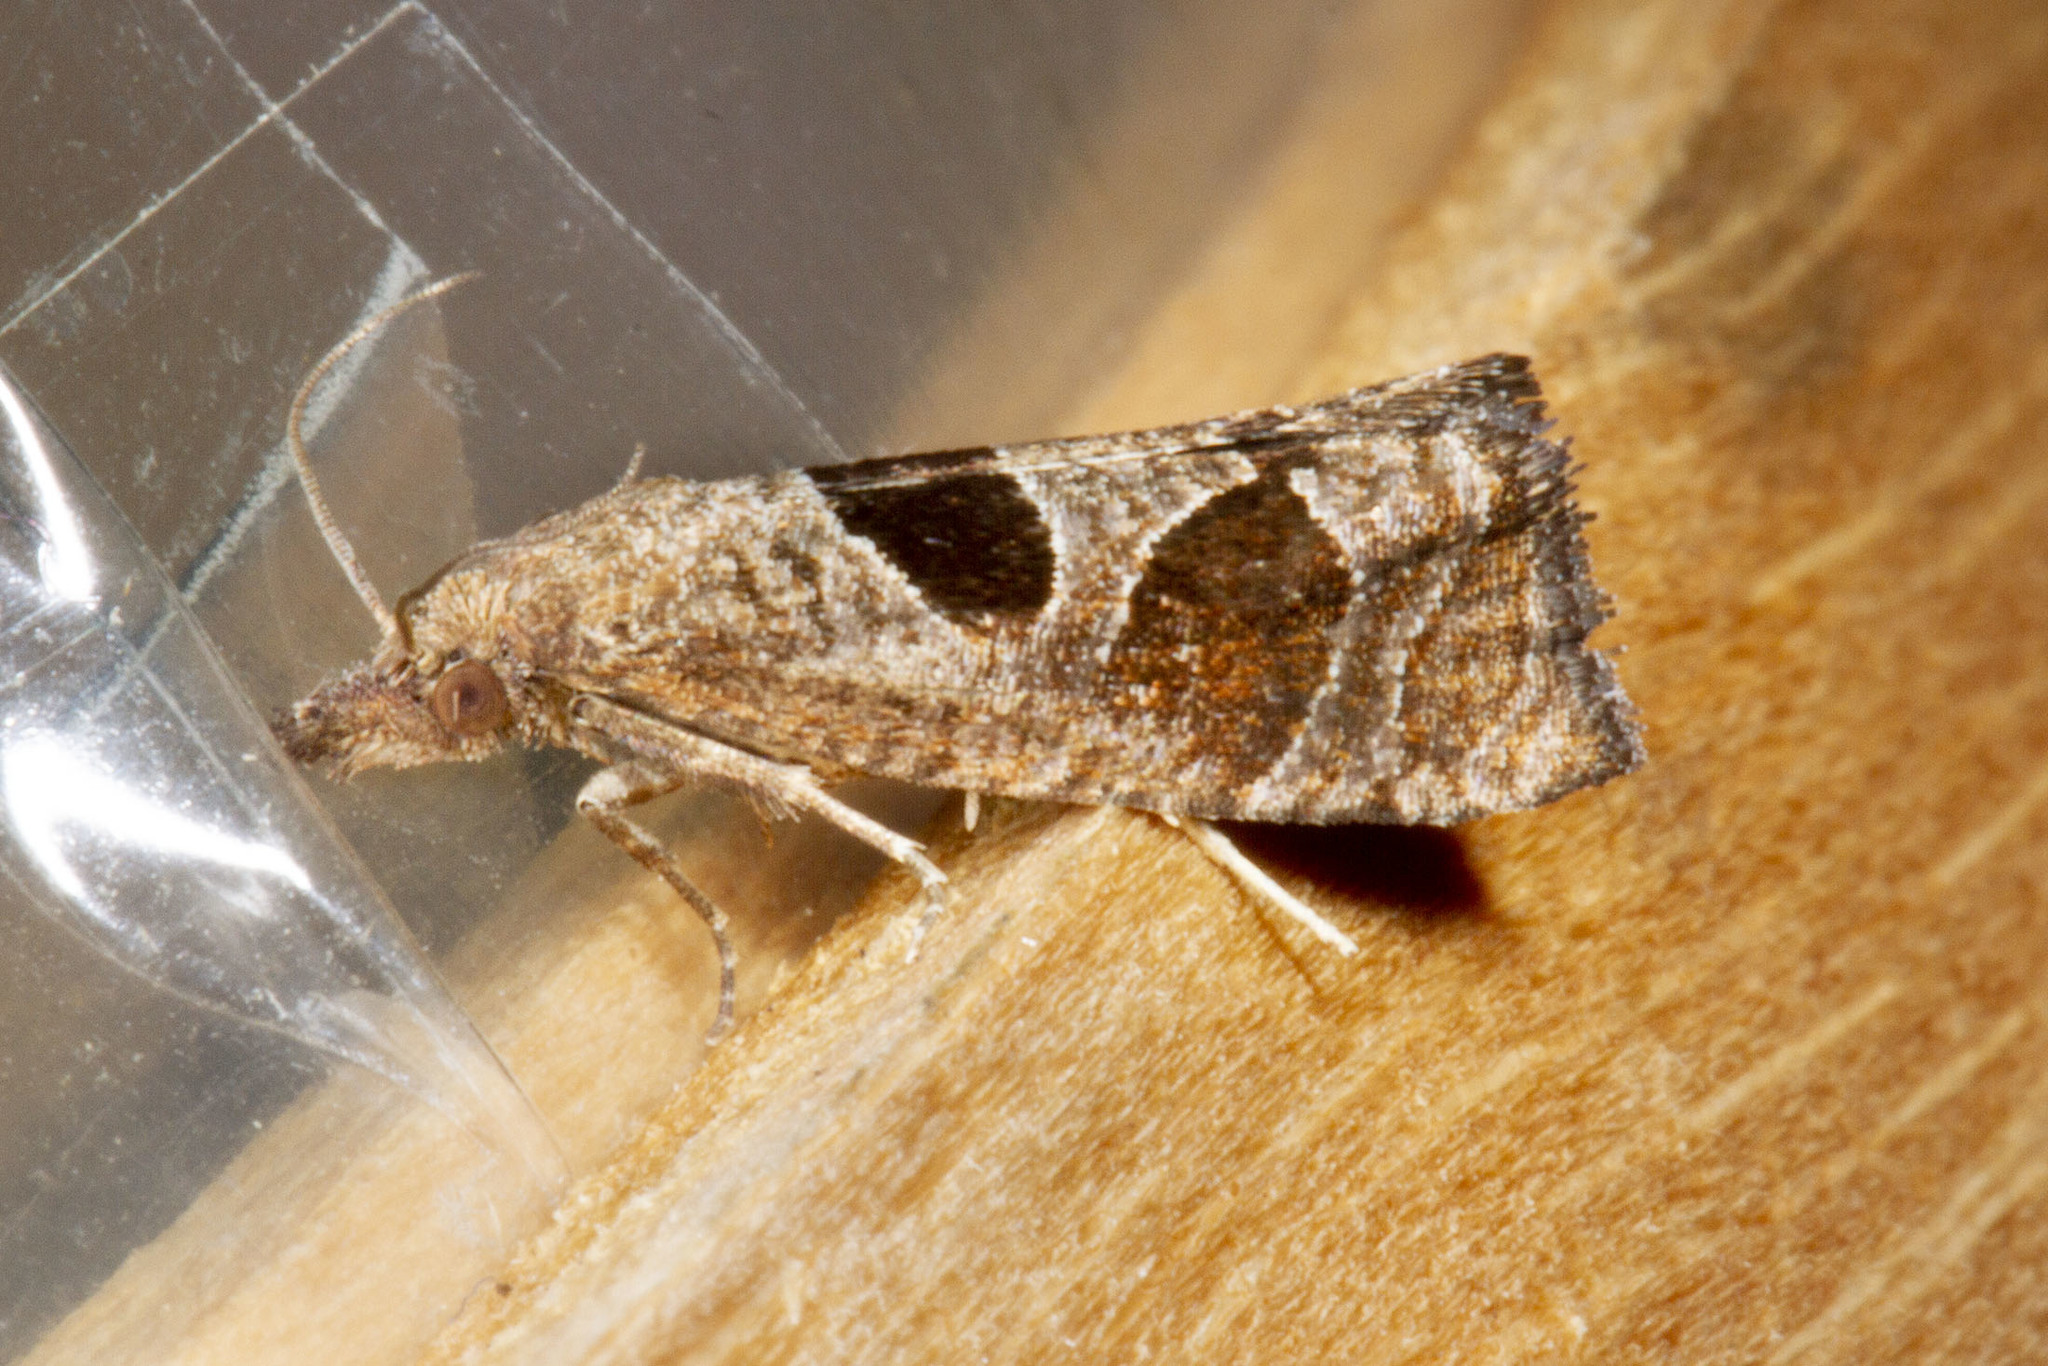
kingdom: Animalia
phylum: Arthropoda
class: Insecta
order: Lepidoptera
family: Tortricidae
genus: Pelochrista
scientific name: Pelochrista dorsisignatana
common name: Triangle-backed pelochrista moth
